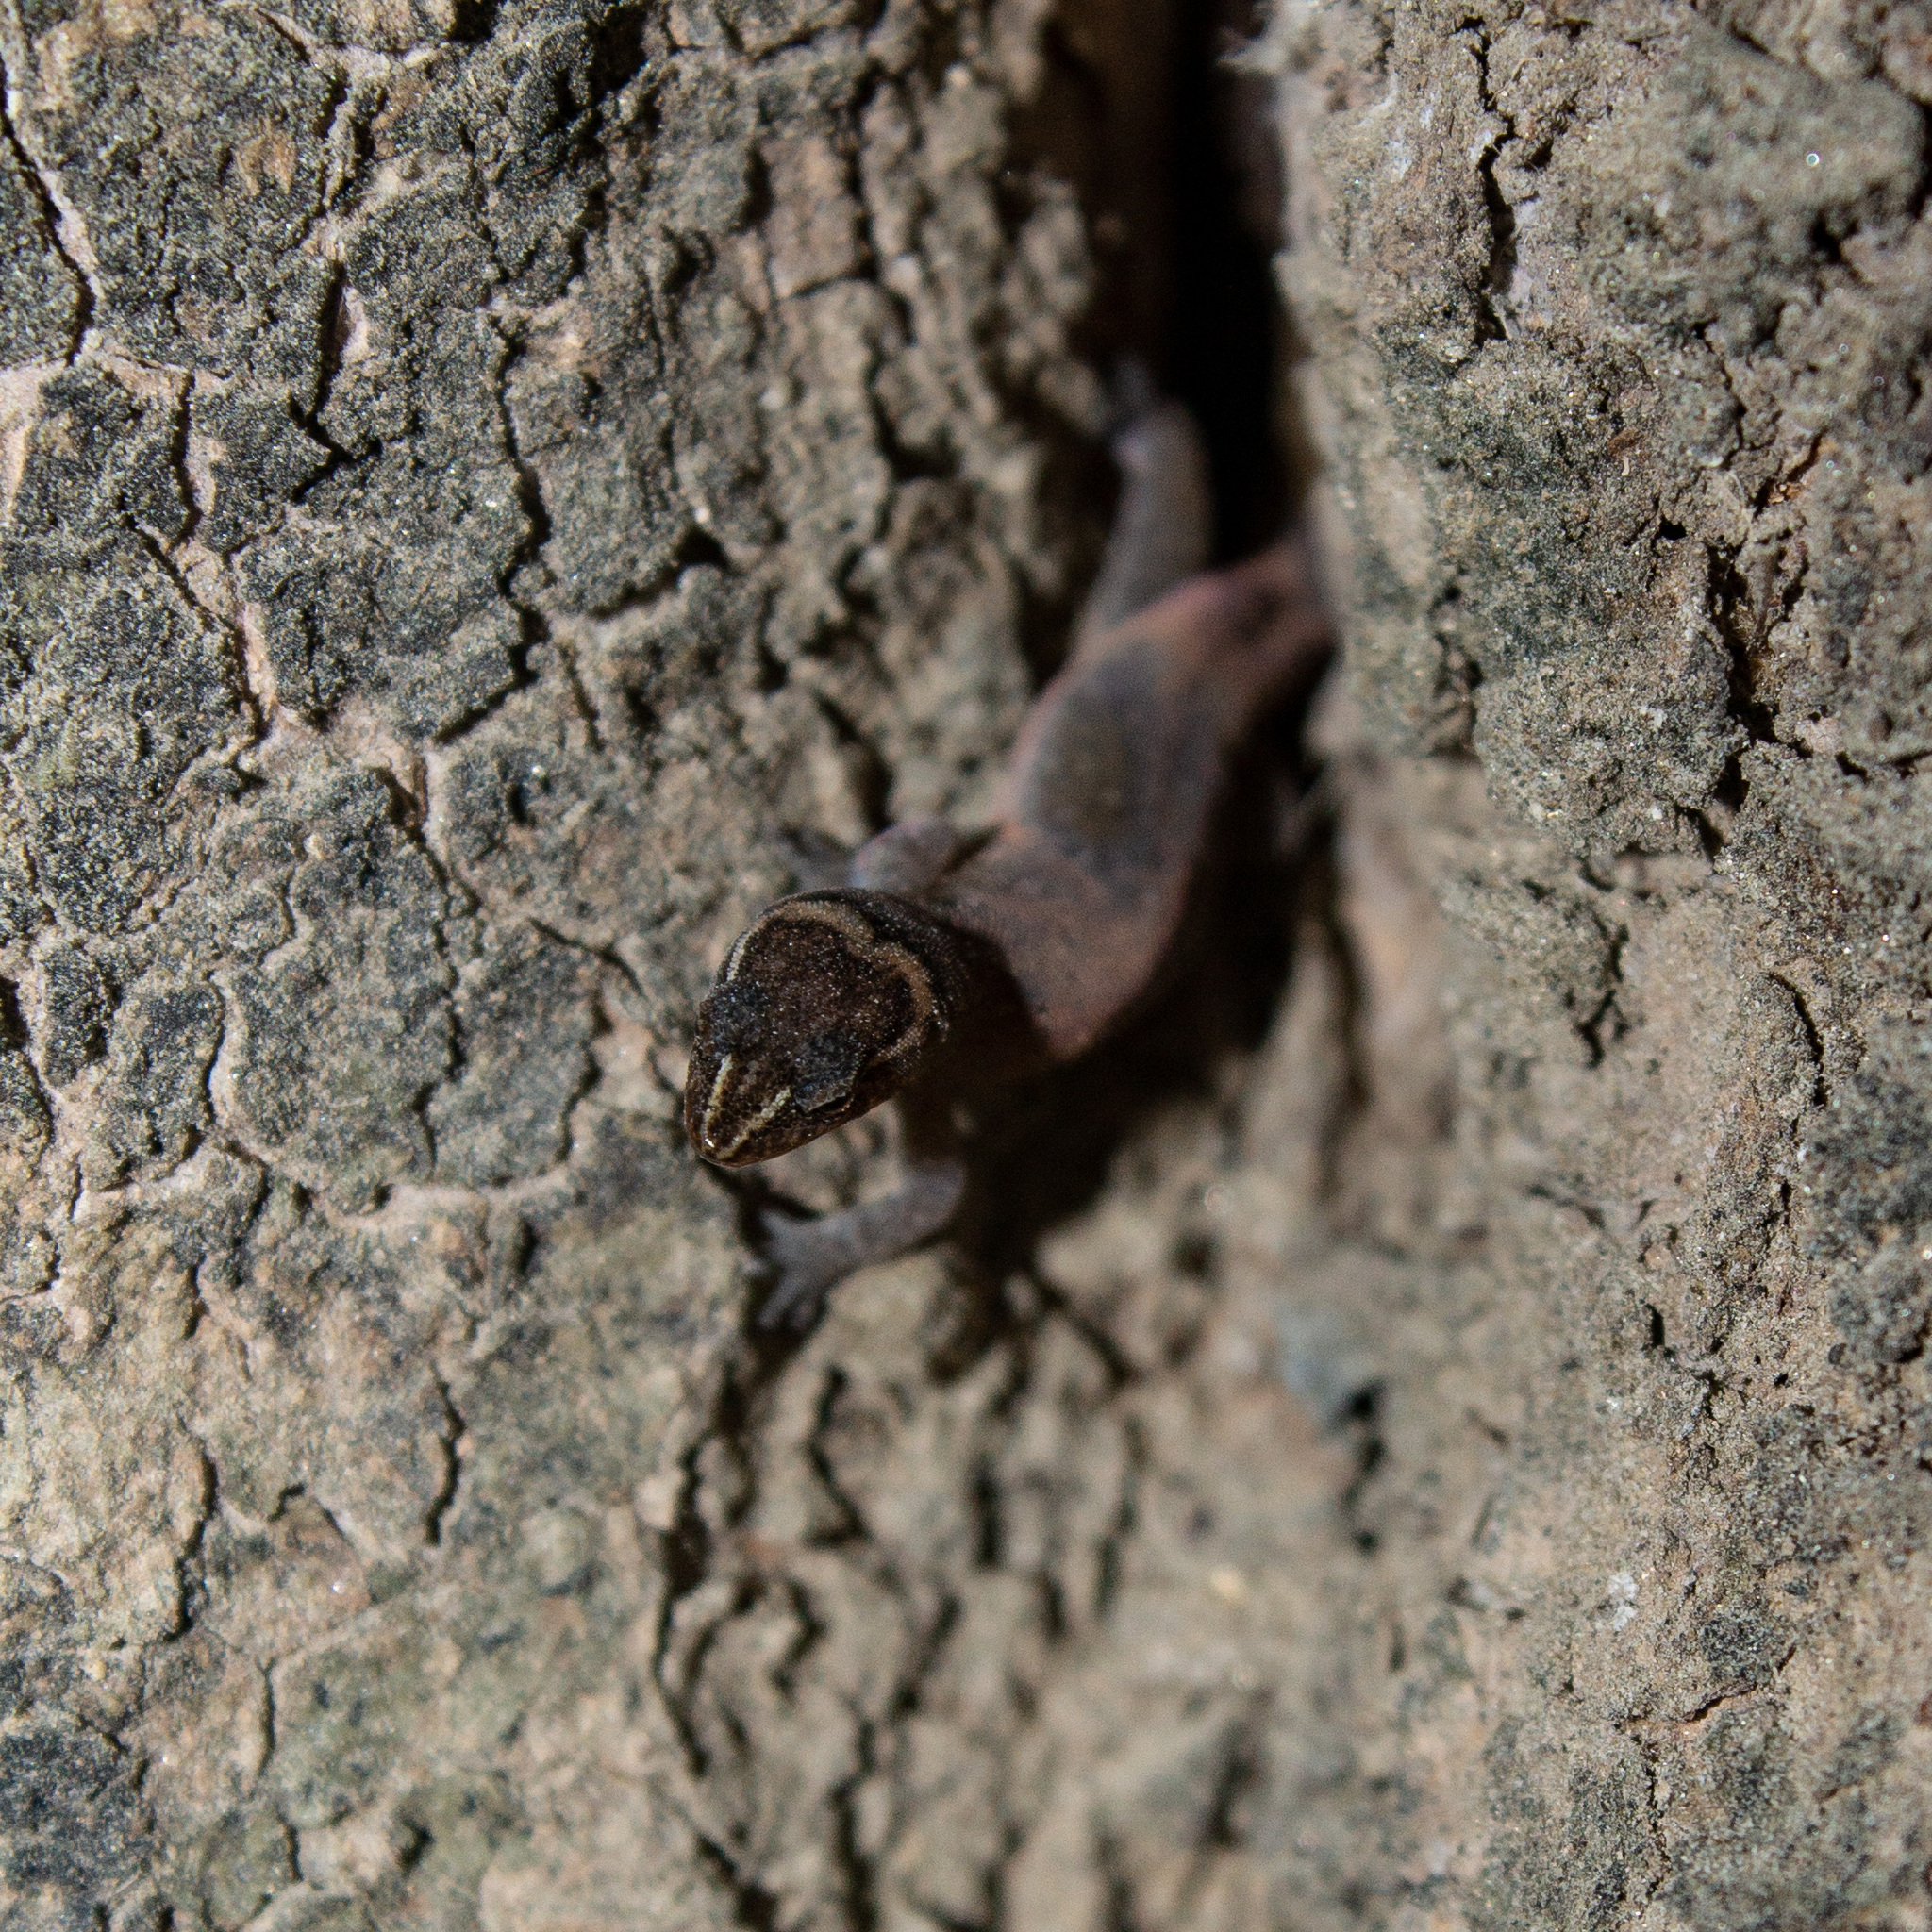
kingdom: Animalia
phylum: Chordata
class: Squamata
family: Sphaerodactylidae
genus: Lepidoblepharis
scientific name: Lepidoblepharis sanctaemartae
